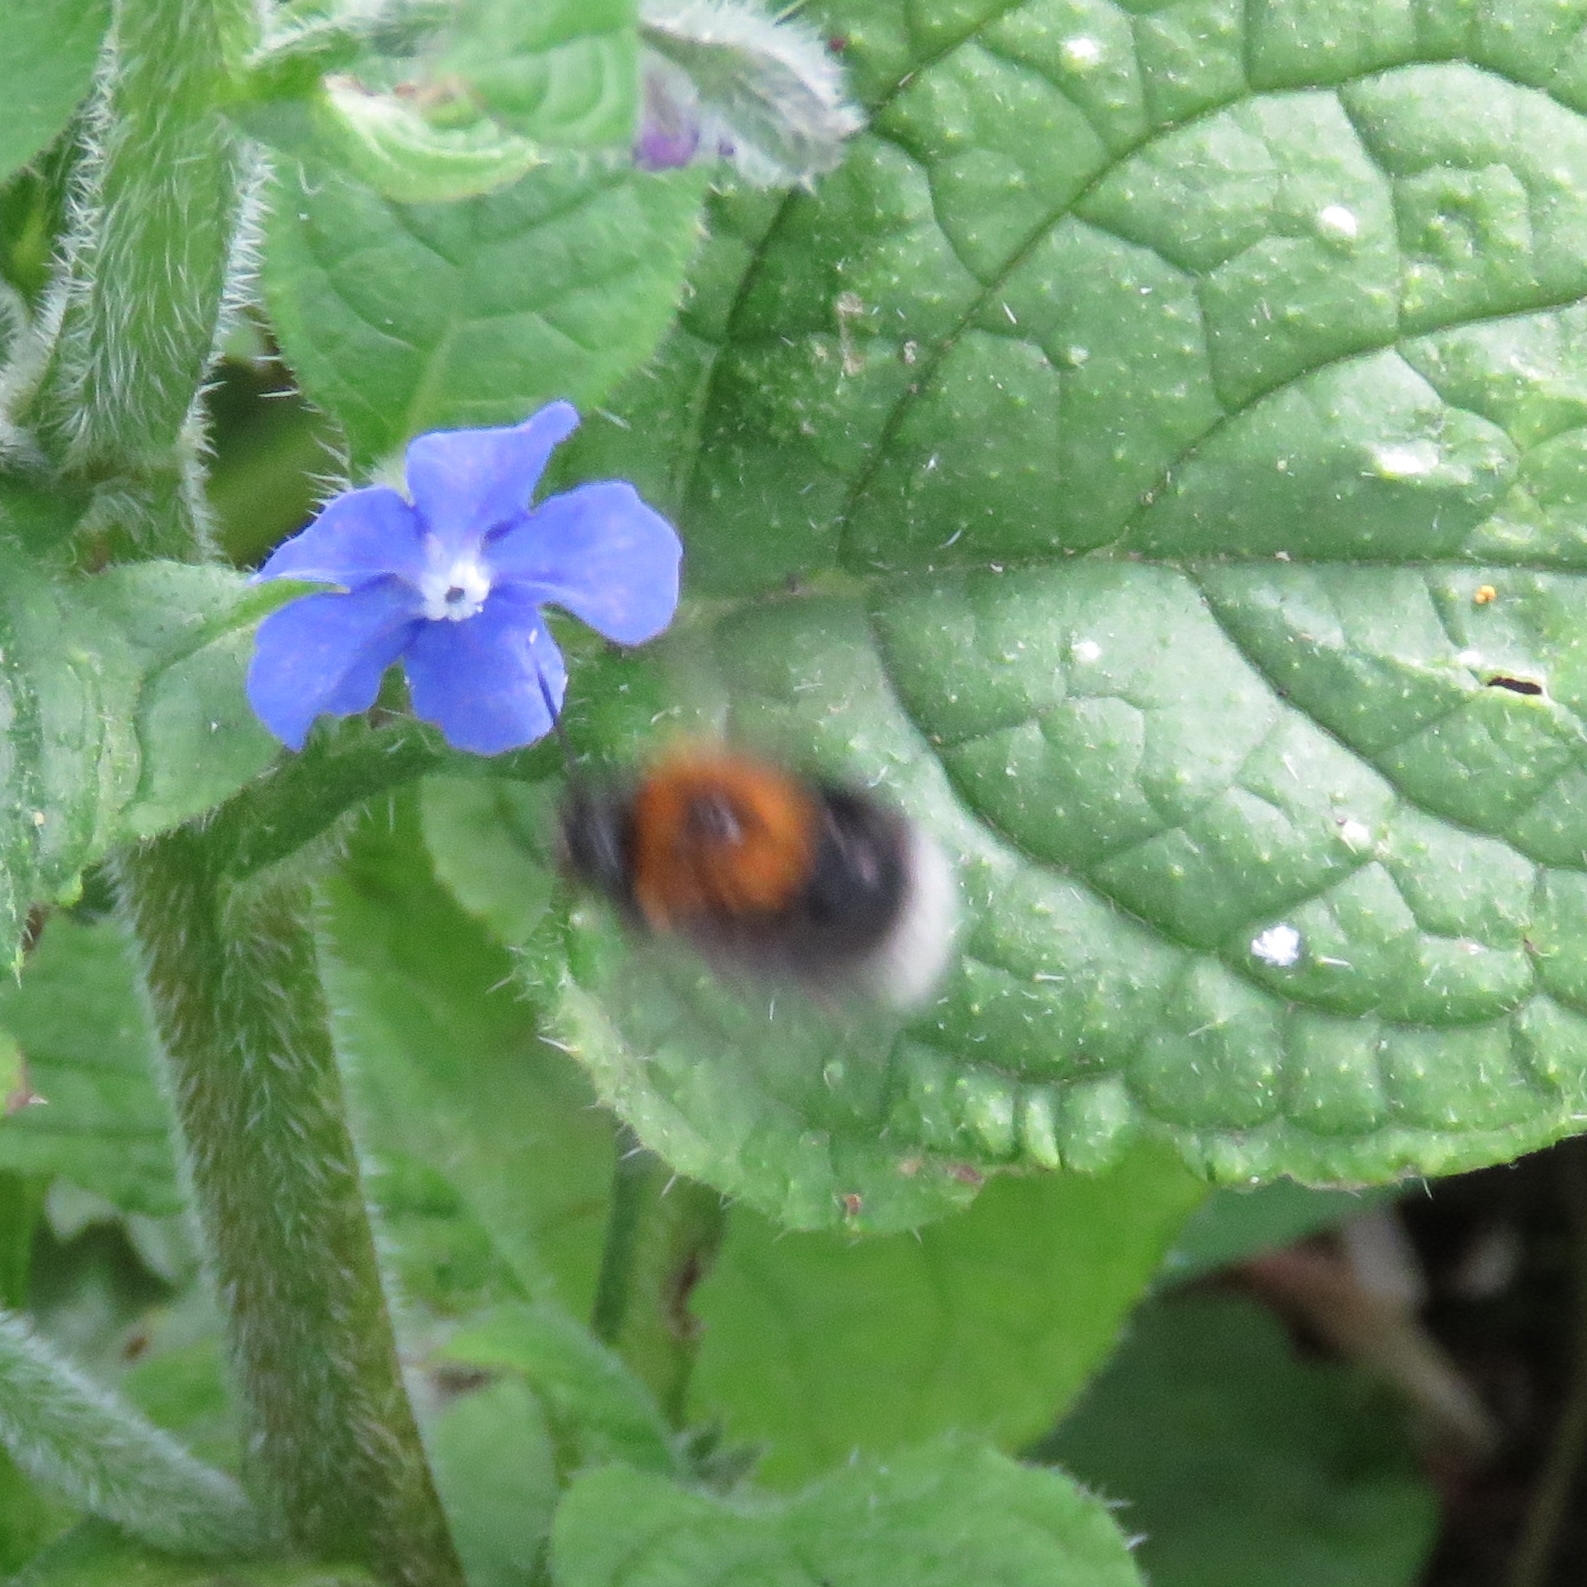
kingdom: Animalia
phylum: Arthropoda
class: Insecta
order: Hymenoptera
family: Apidae
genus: Bombus
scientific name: Bombus hypnorum
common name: New garden bumblebee
